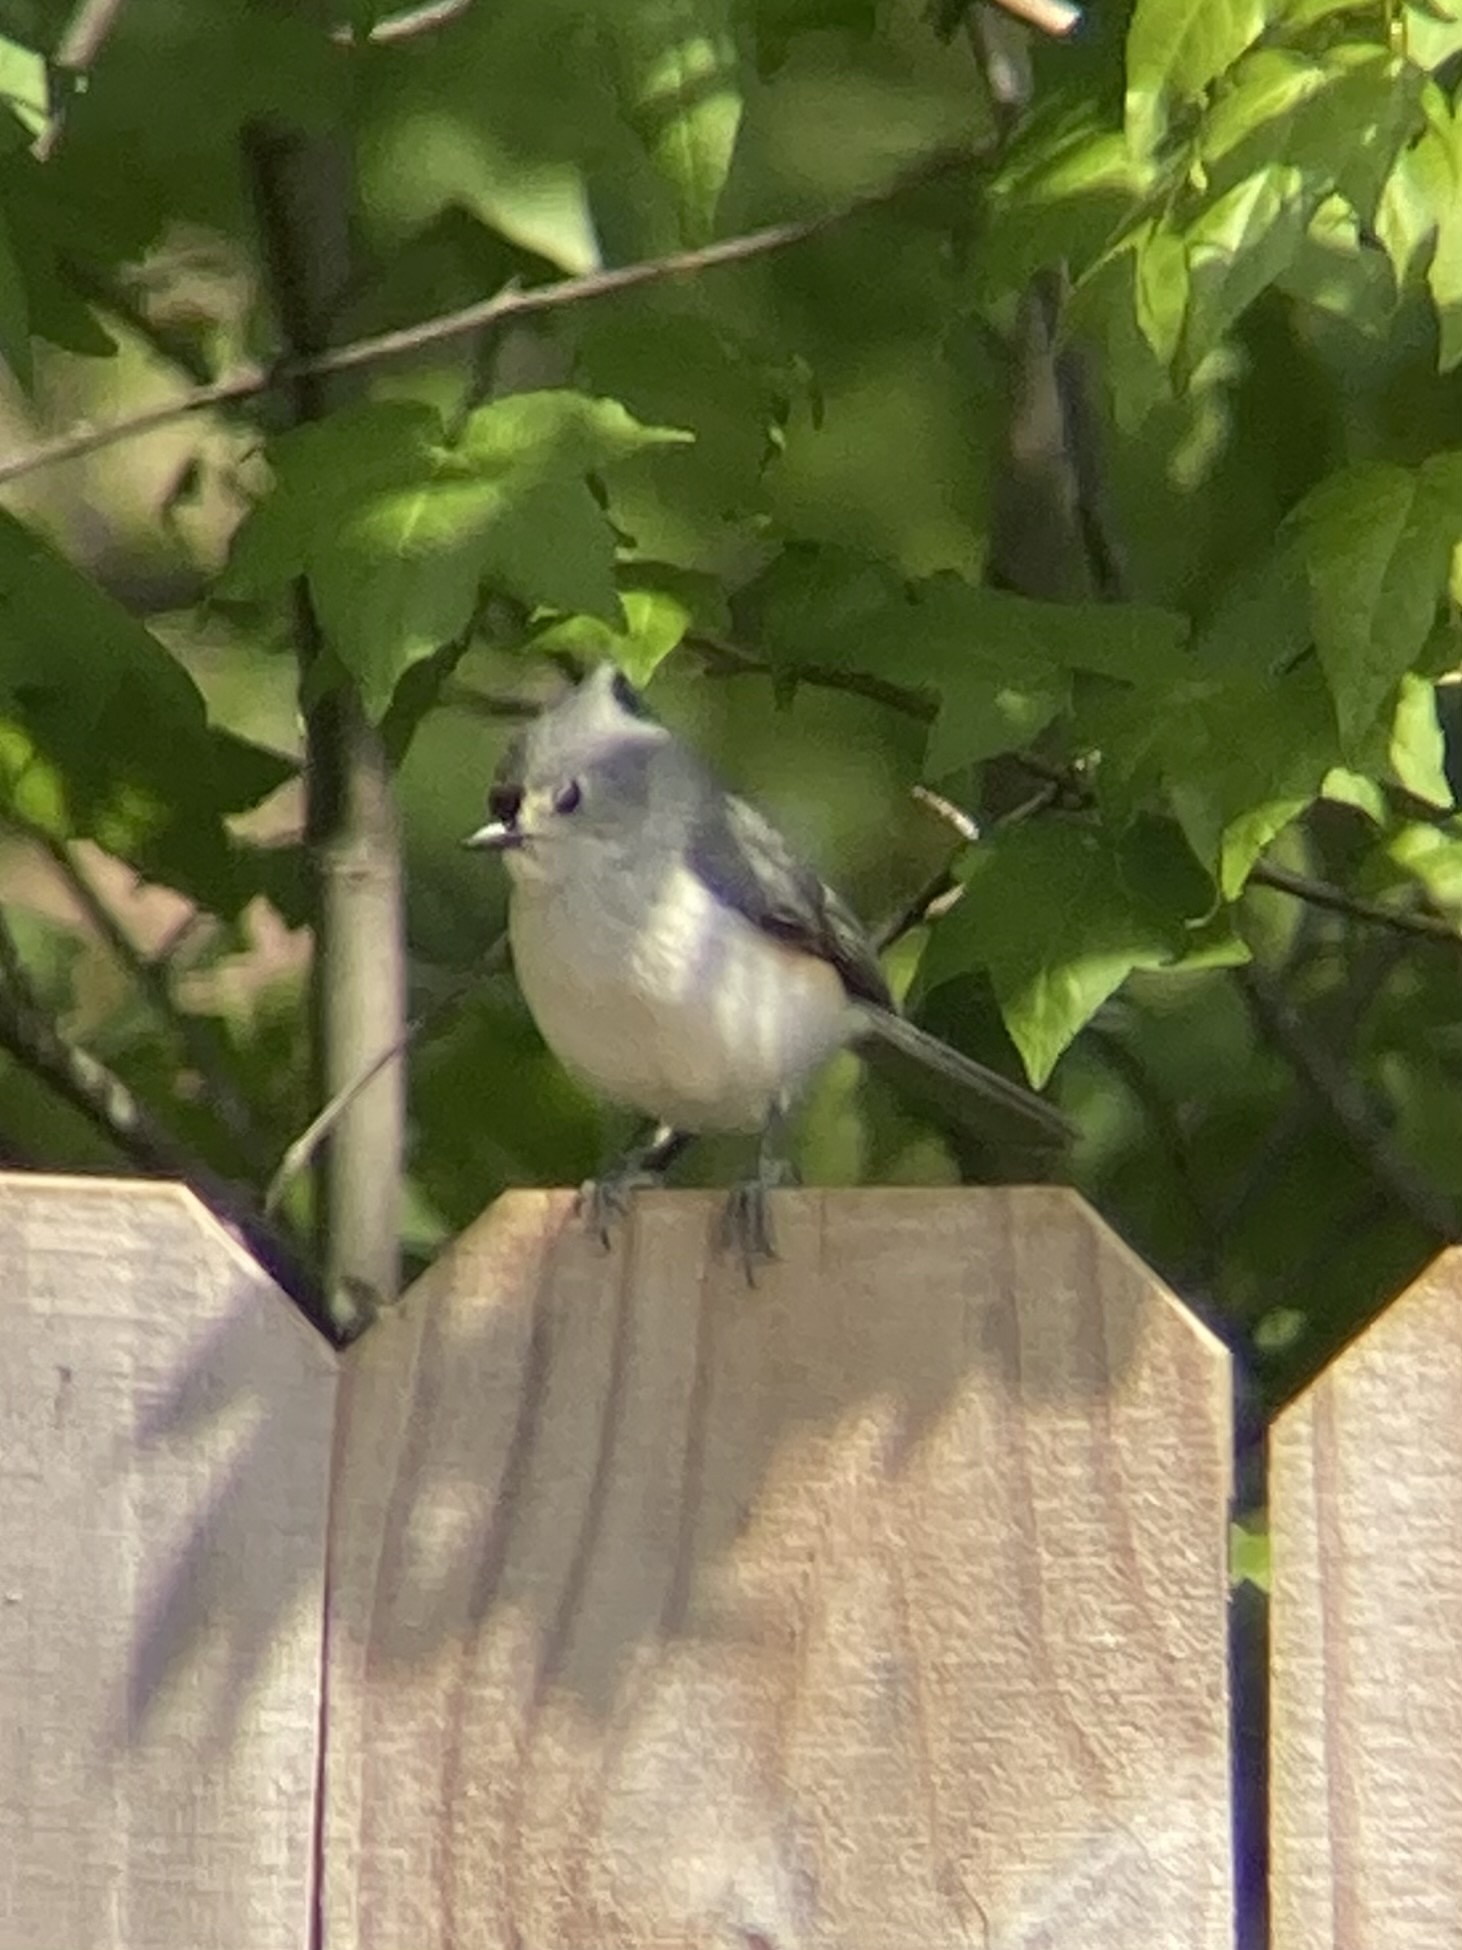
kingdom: Animalia
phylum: Chordata
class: Aves
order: Passeriformes
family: Paridae
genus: Baeolophus
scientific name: Baeolophus bicolor
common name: Tufted titmouse
